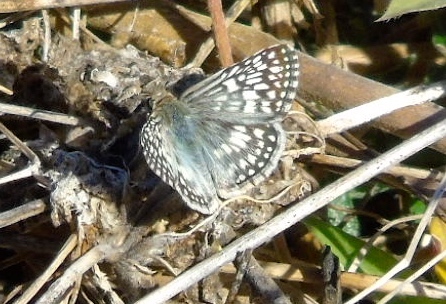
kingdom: Animalia
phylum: Arthropoda
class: Insecta
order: Lepidoptera
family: Hesperiidae
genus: Pyrgus
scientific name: Pyrgus oileus
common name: Tropical checkered-skipper
